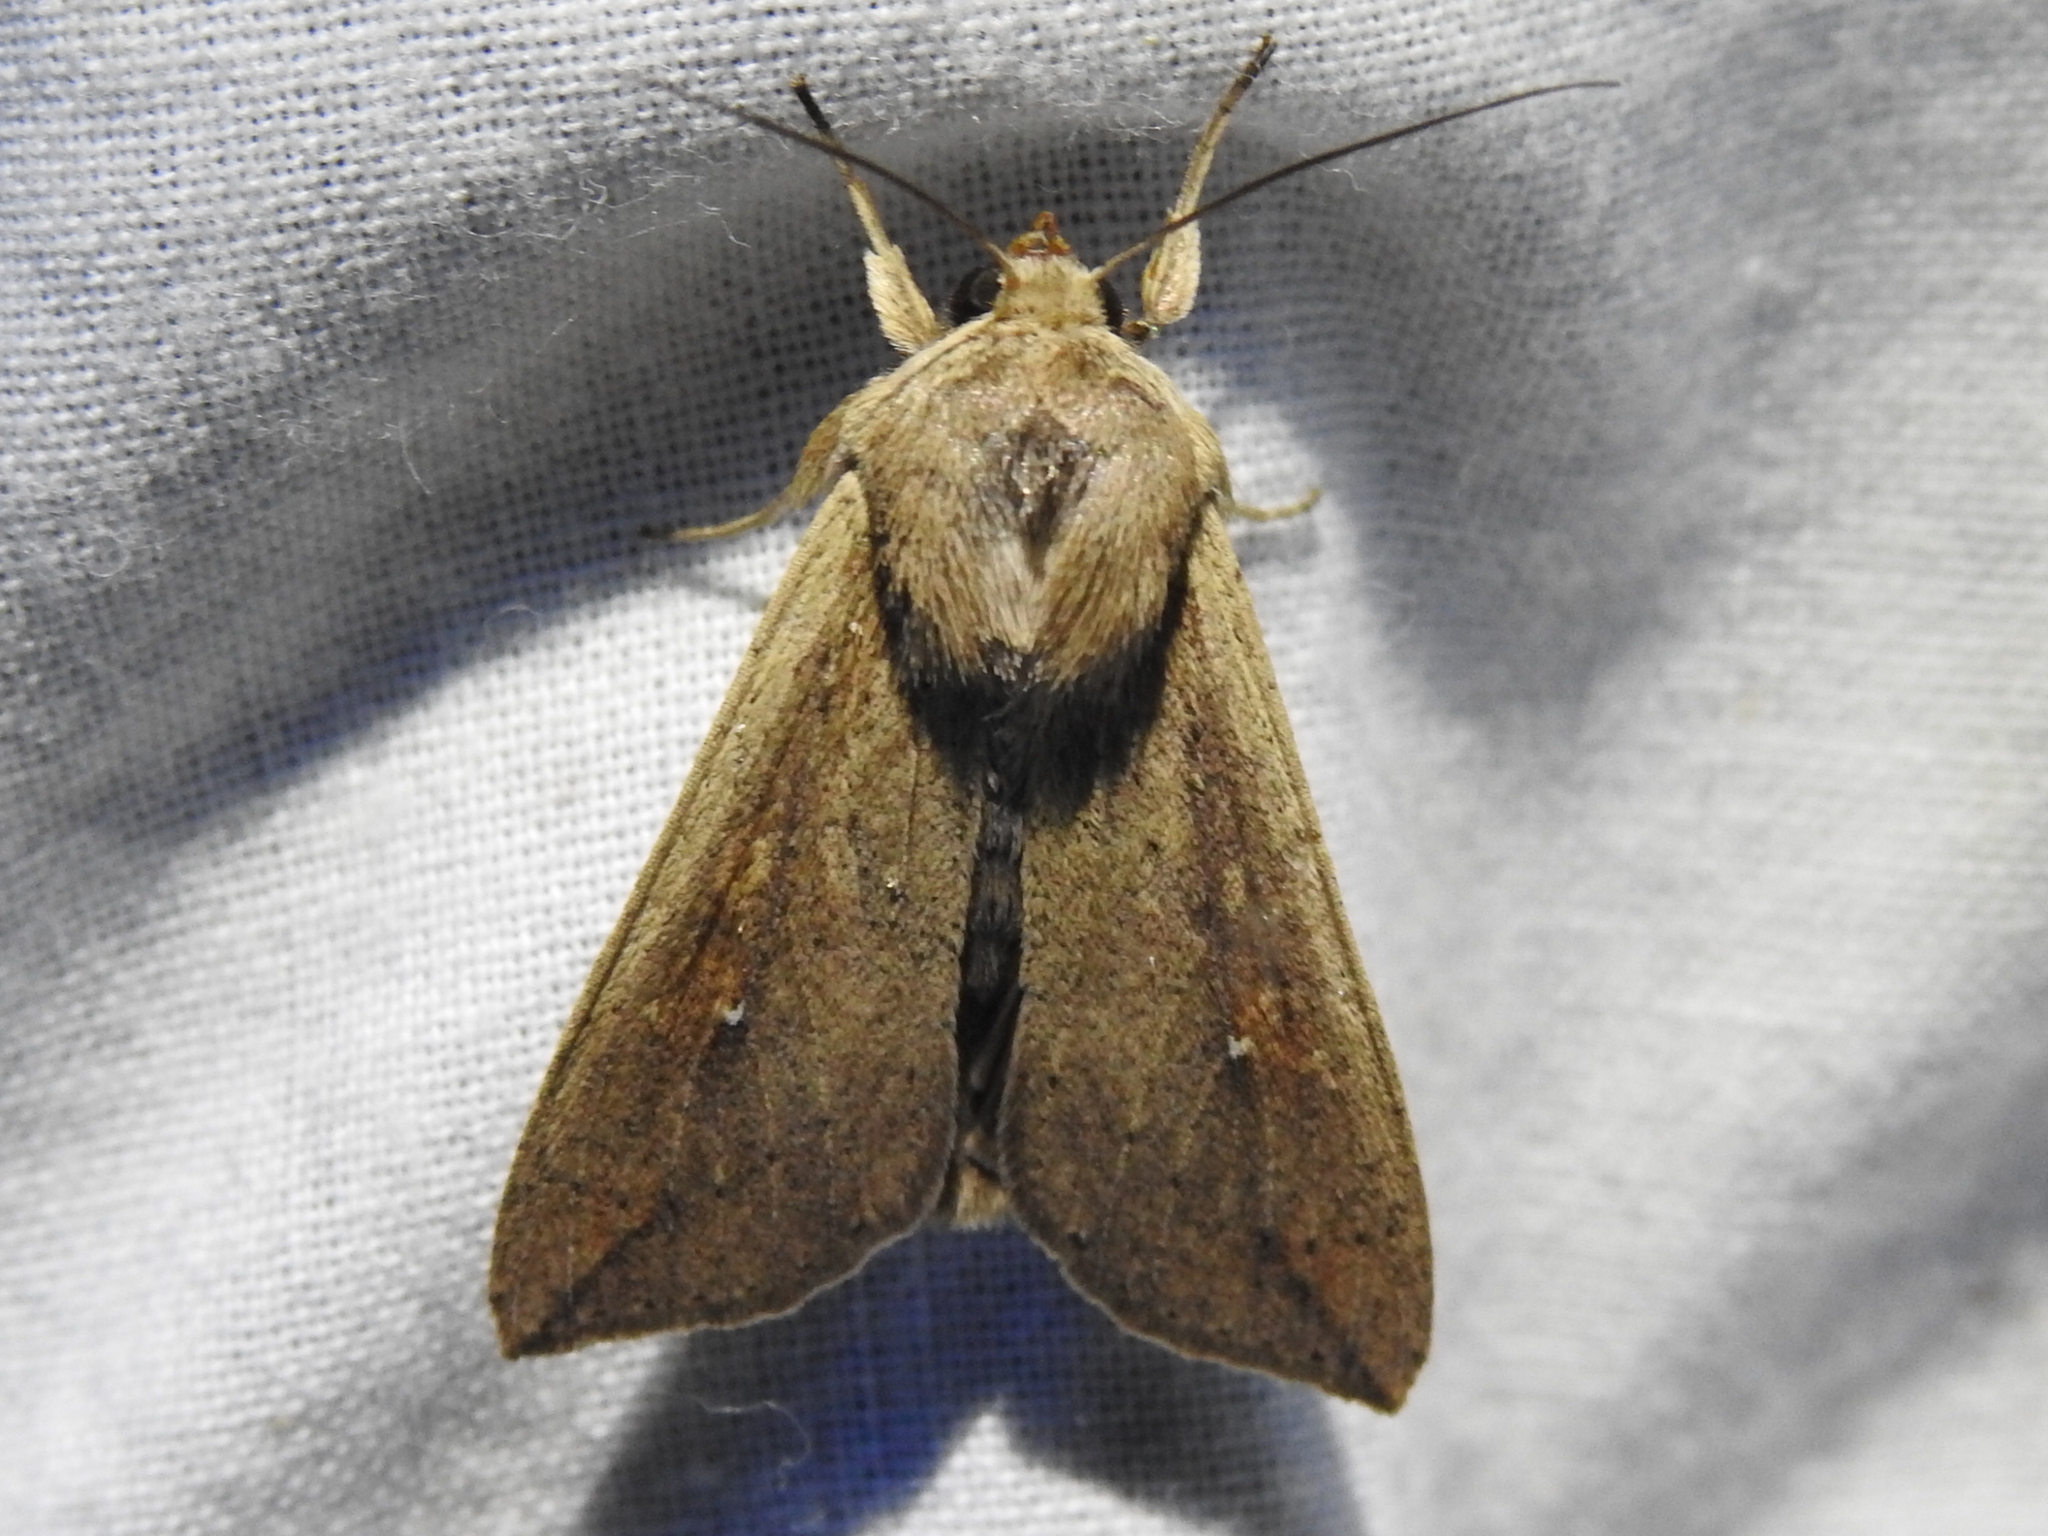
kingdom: Animalia
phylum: Arthropoda
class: Insecta
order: Lepidoptera
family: Noctuidae
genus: Mythimna
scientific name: Mythimna unipuncta
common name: White-speck
